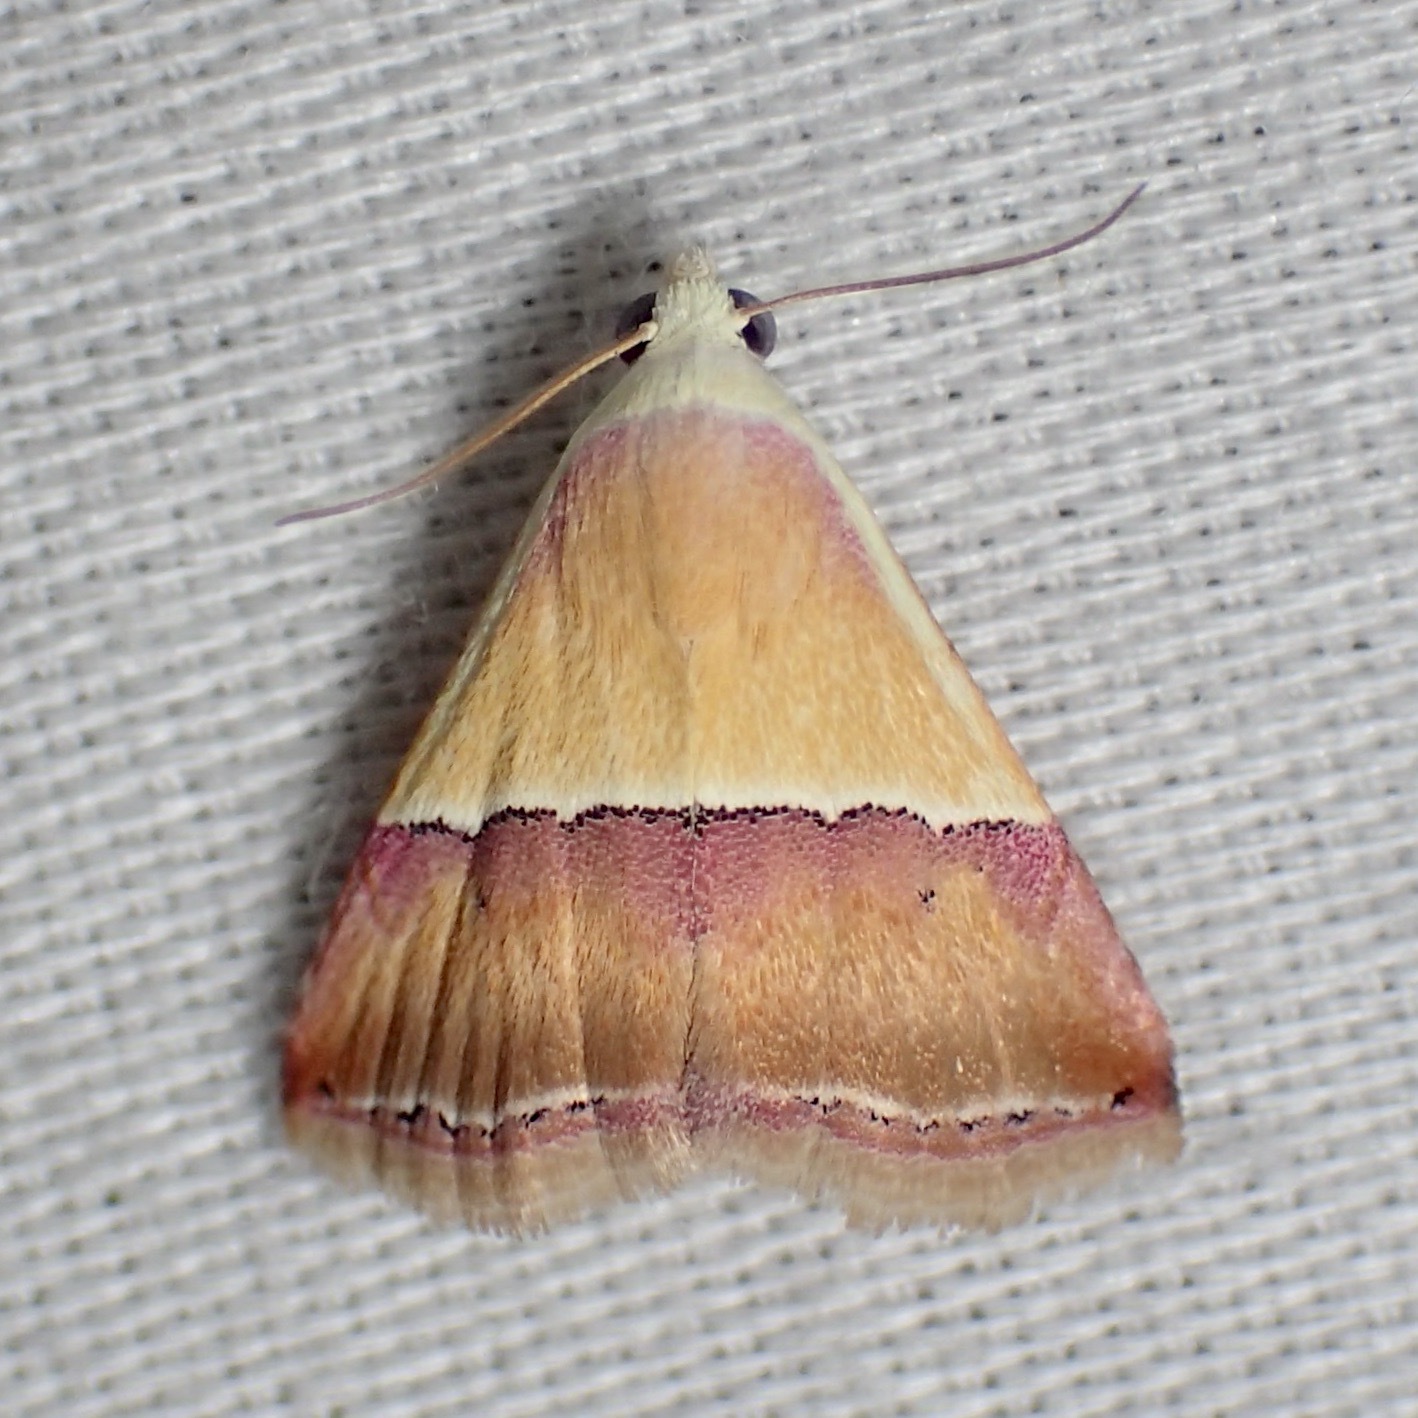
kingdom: Animalia
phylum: Arthropoda
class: Insecta
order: Lepidoptera
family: Noctuidae
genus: Eublemma
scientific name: Eublemma accedens
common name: Moth
